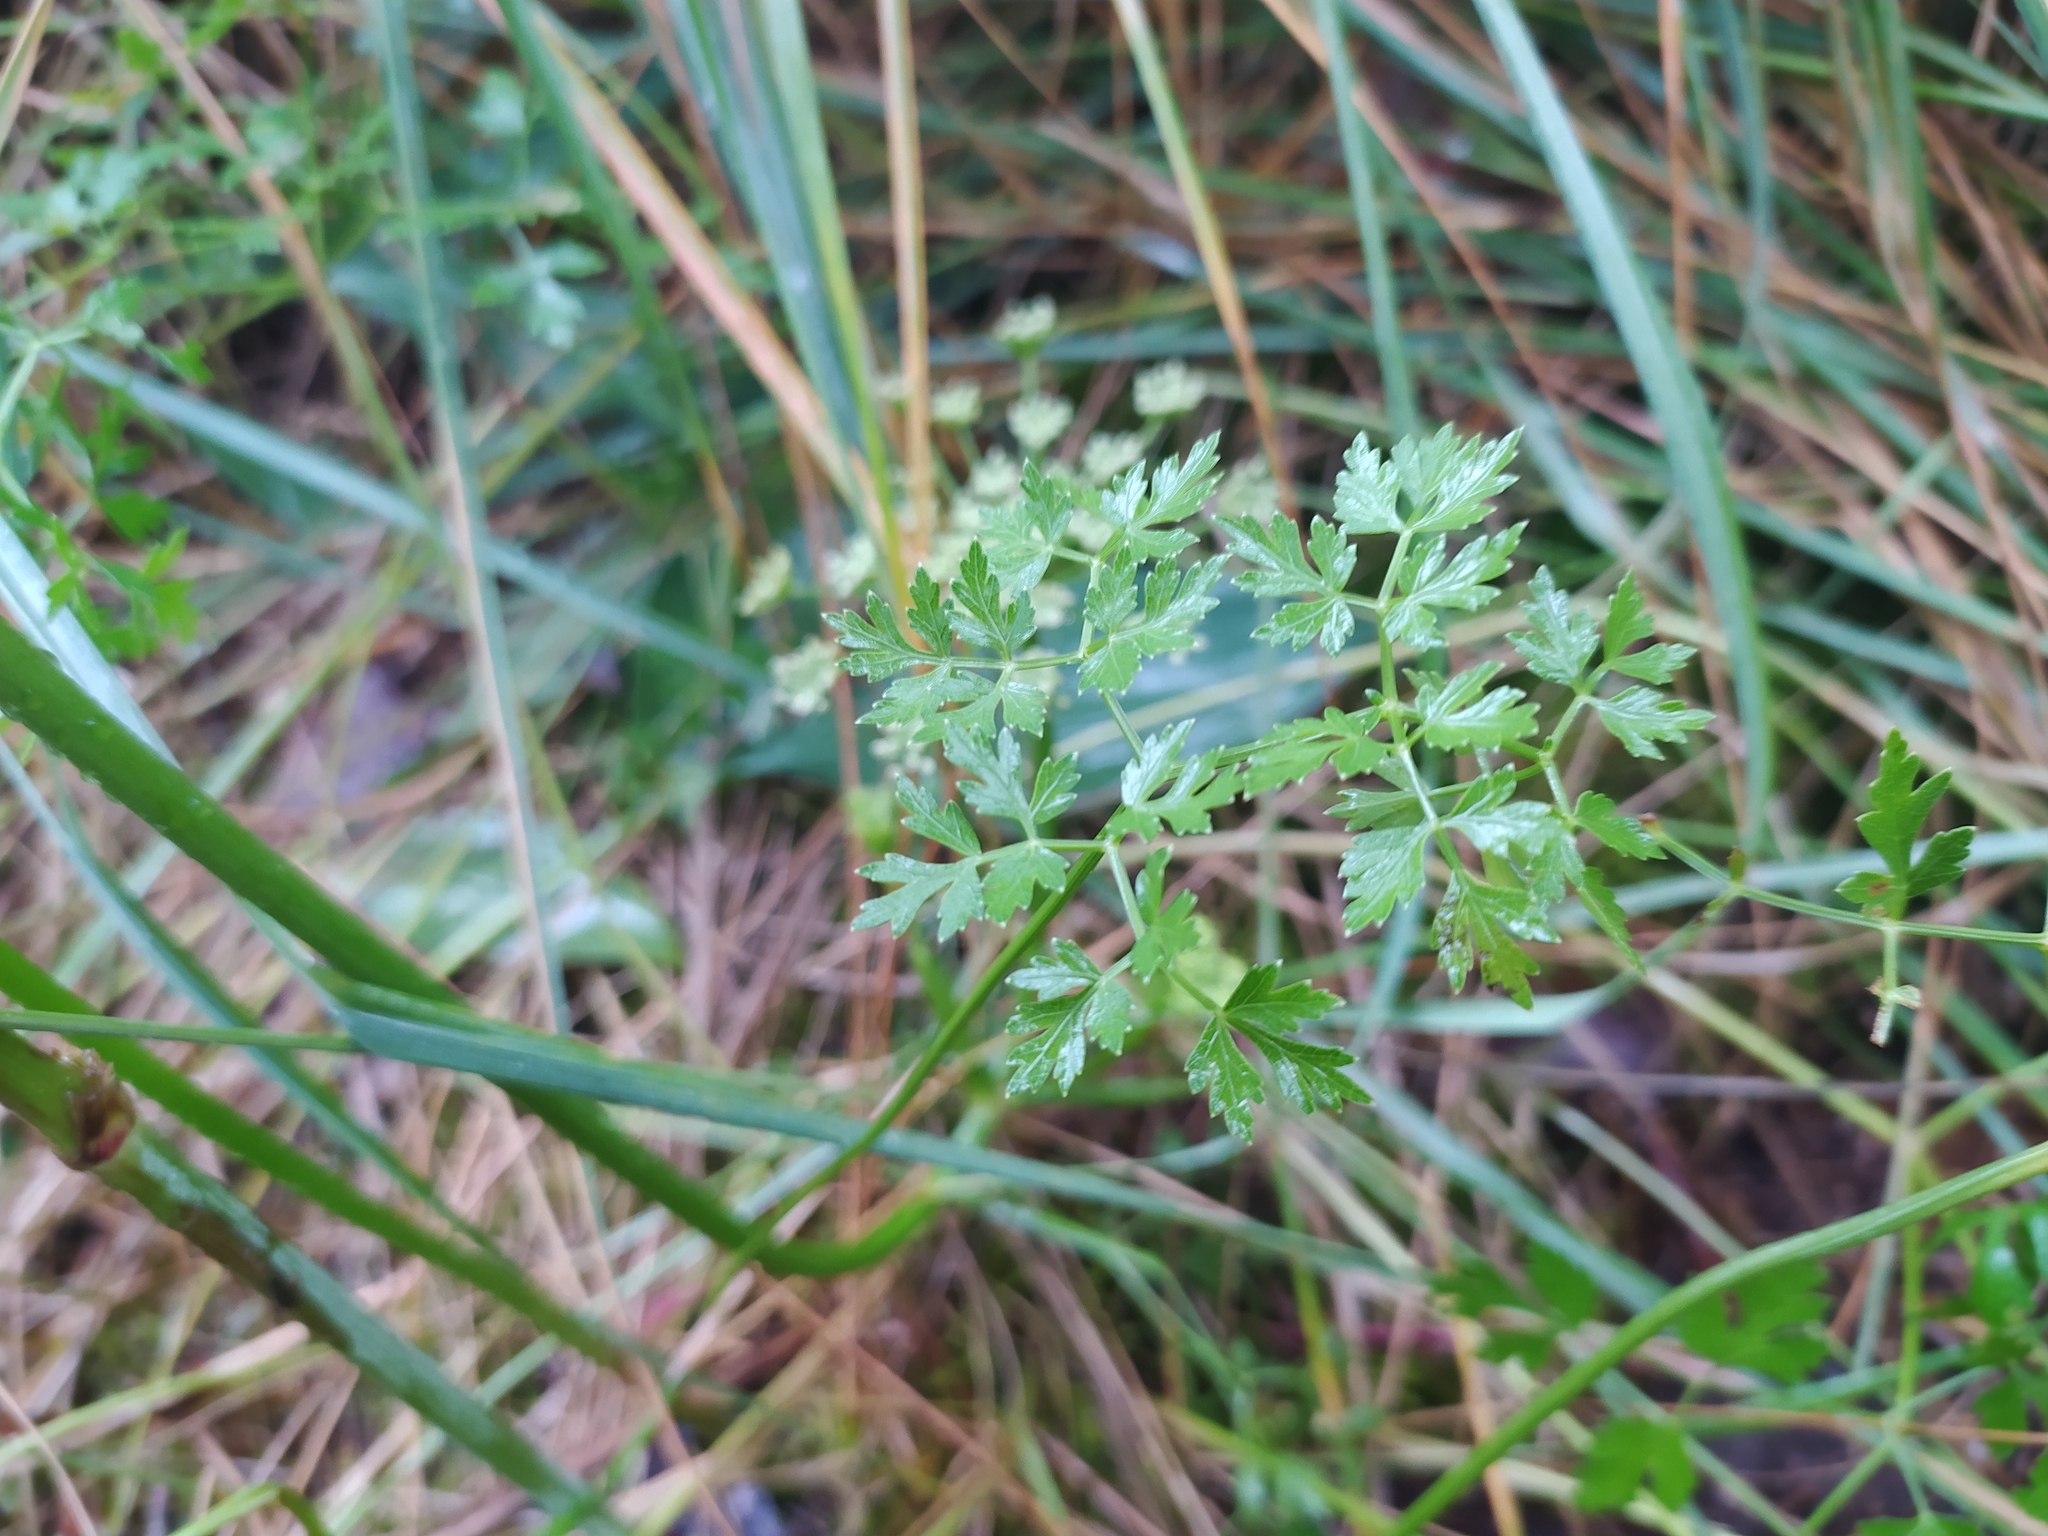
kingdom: Plantae
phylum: Tracheophyta
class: Magnoliopsida
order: Apiales
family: Apiaceae
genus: Oreoselinum
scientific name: Oreoselinum nigrum
